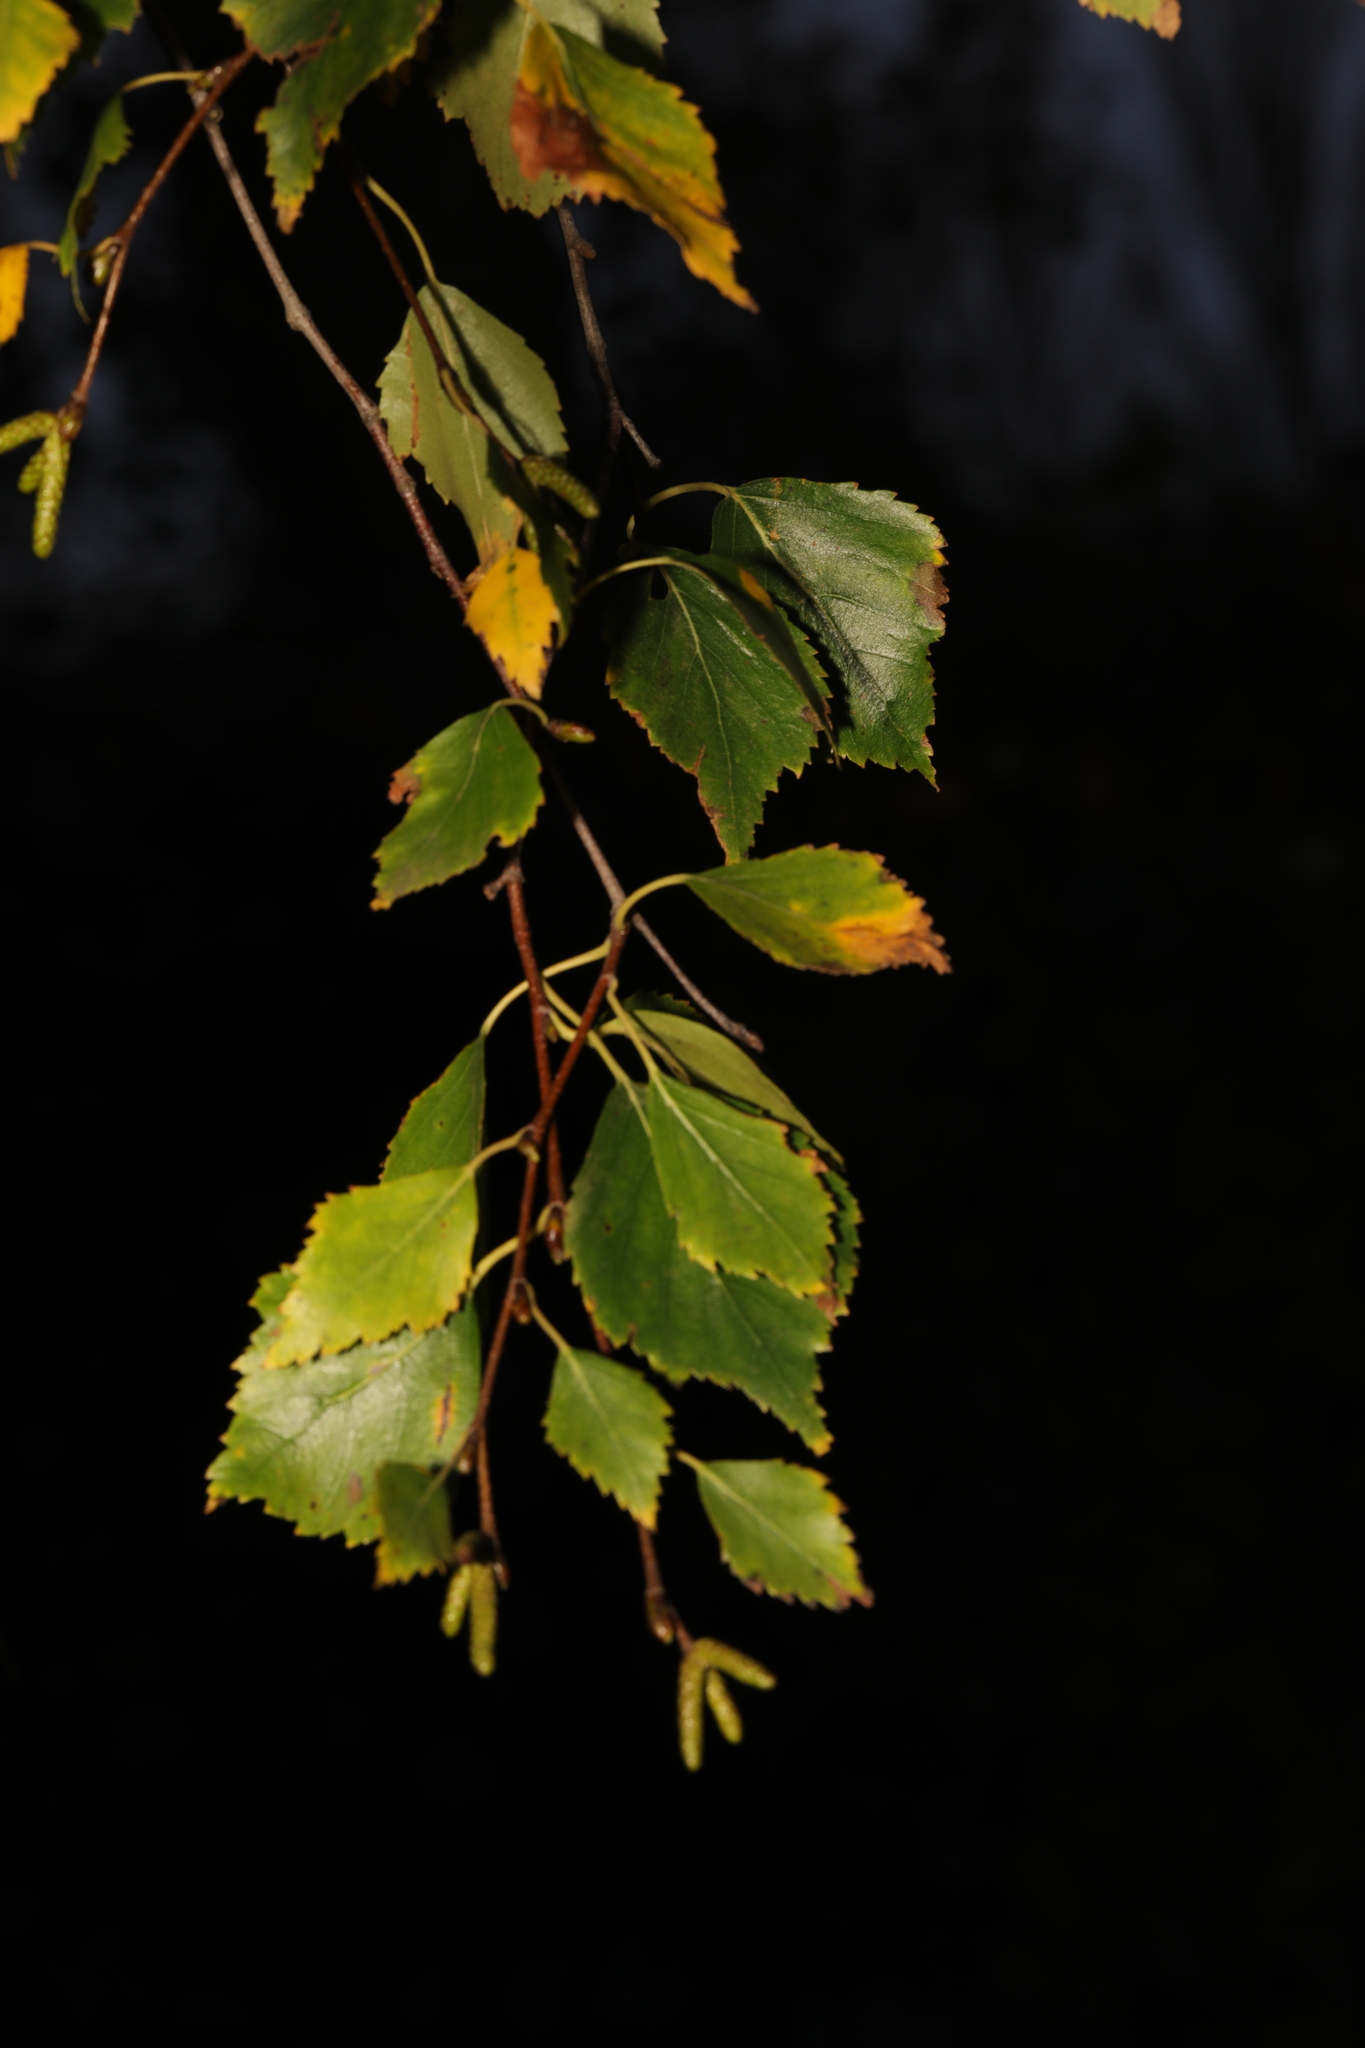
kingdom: Plantae
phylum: Tracheophyta
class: Magnoliopsida
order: Fagales
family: Betulaceae
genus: Betula
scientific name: Betula pendula
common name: Silver birch
